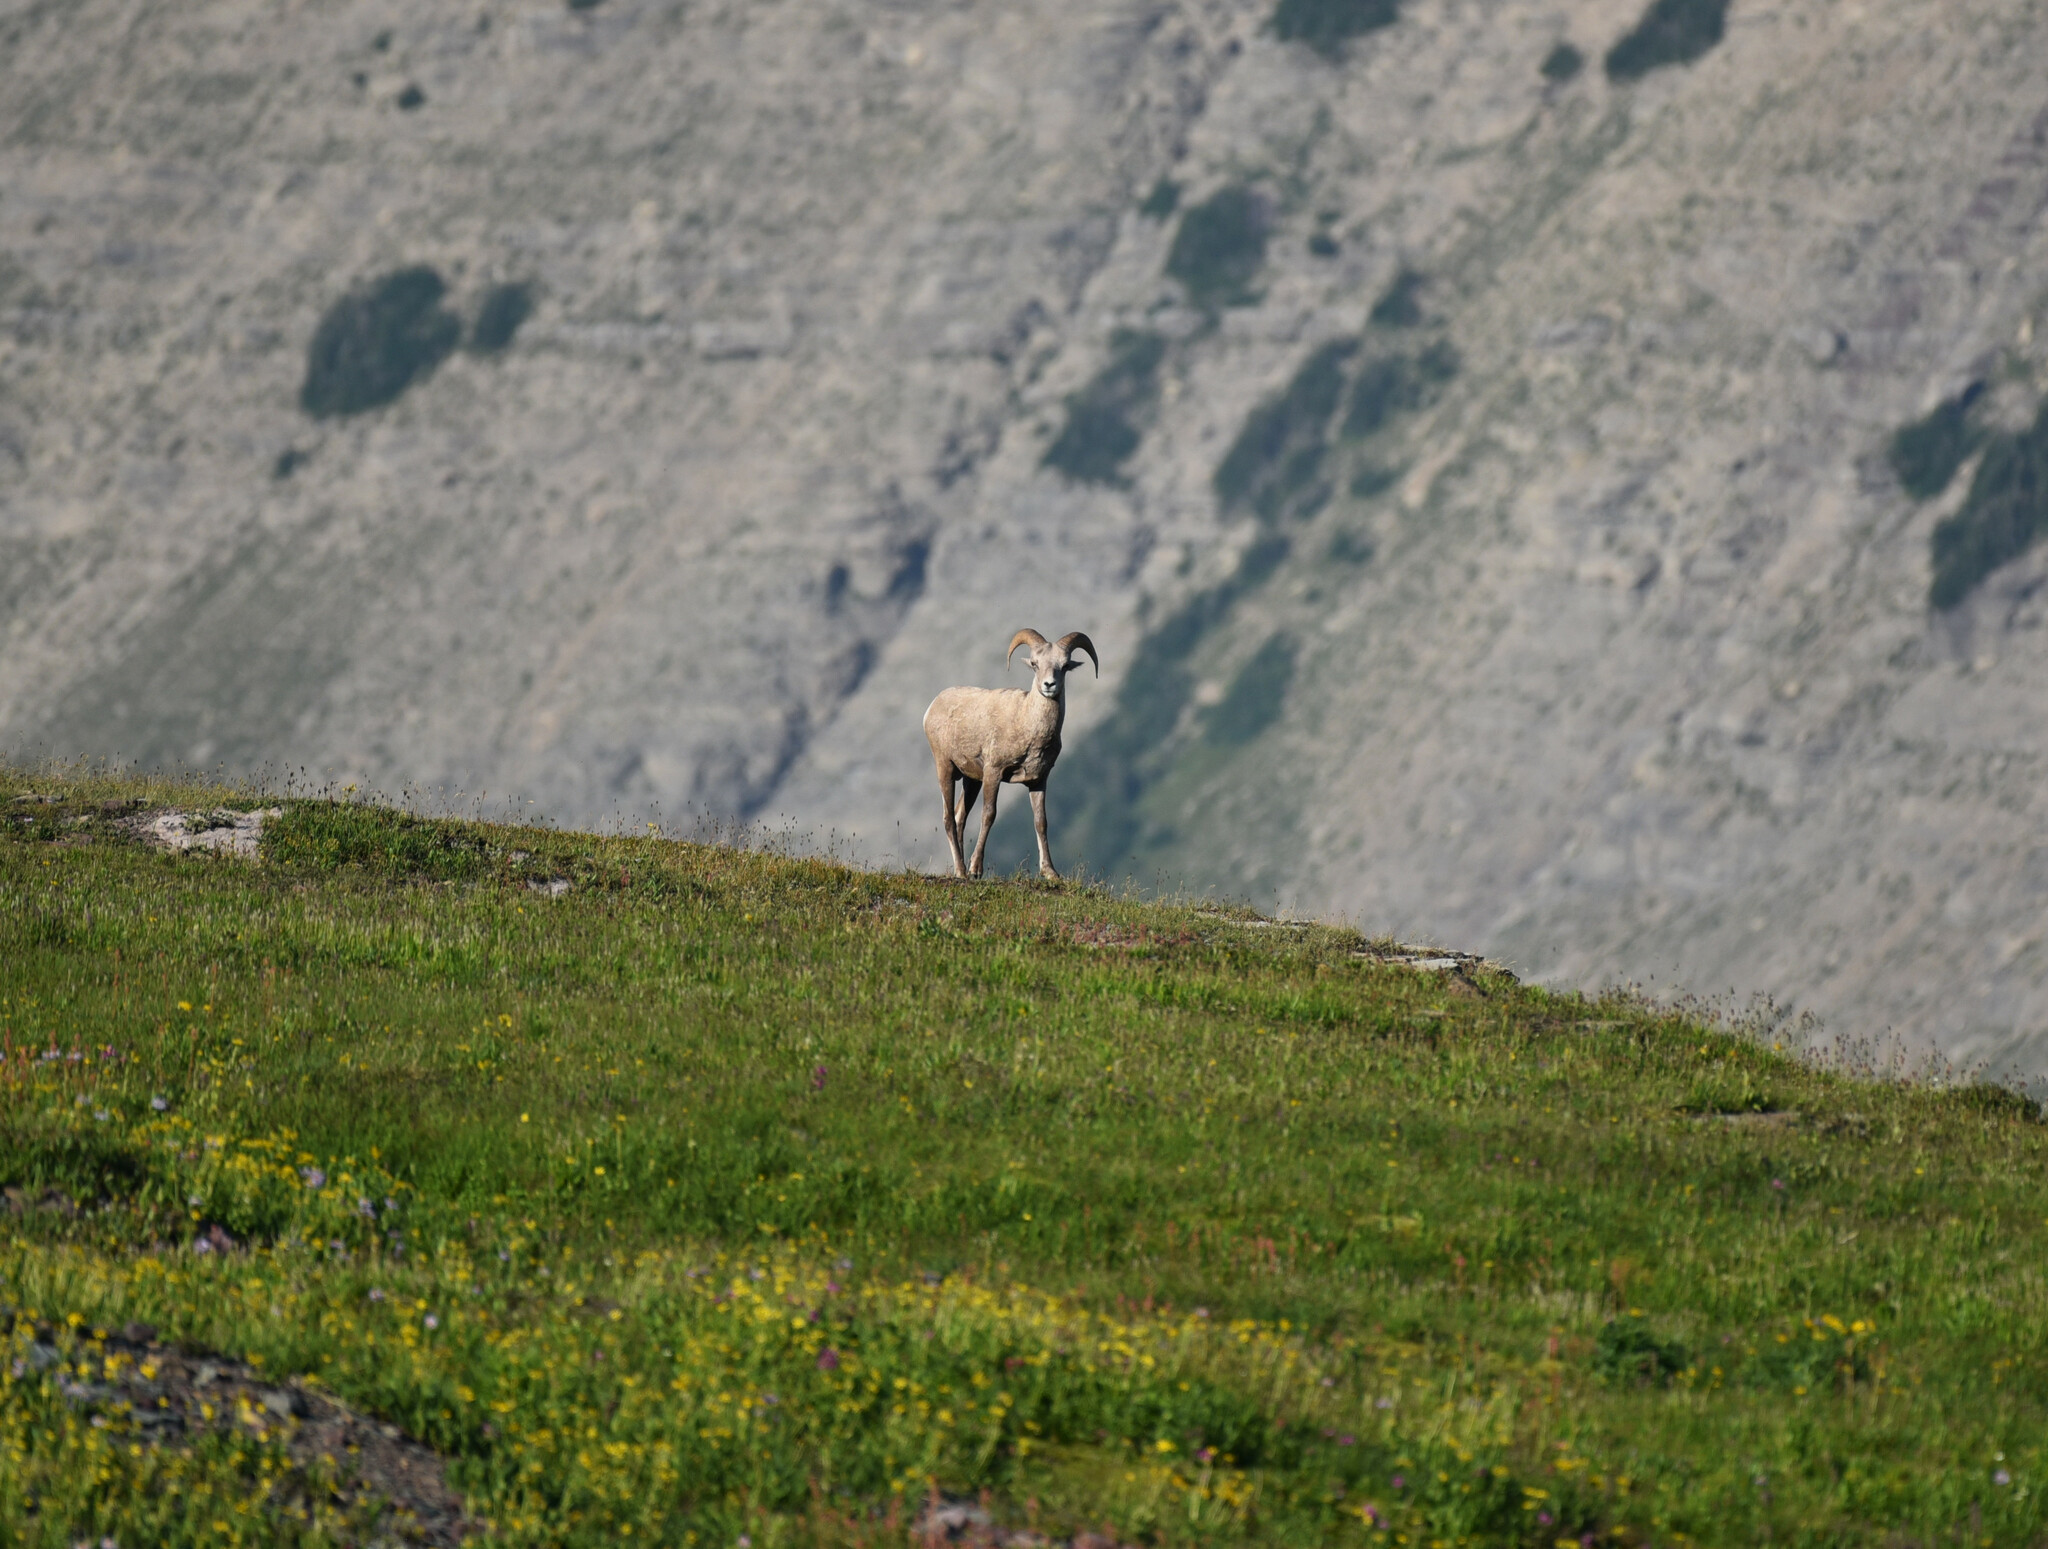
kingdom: Animalia
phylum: Chordata
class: Mammalia
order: Artiodactyla
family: Bovidae
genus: Ovis
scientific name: Ovis canadensis
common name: Bighorn sheep
